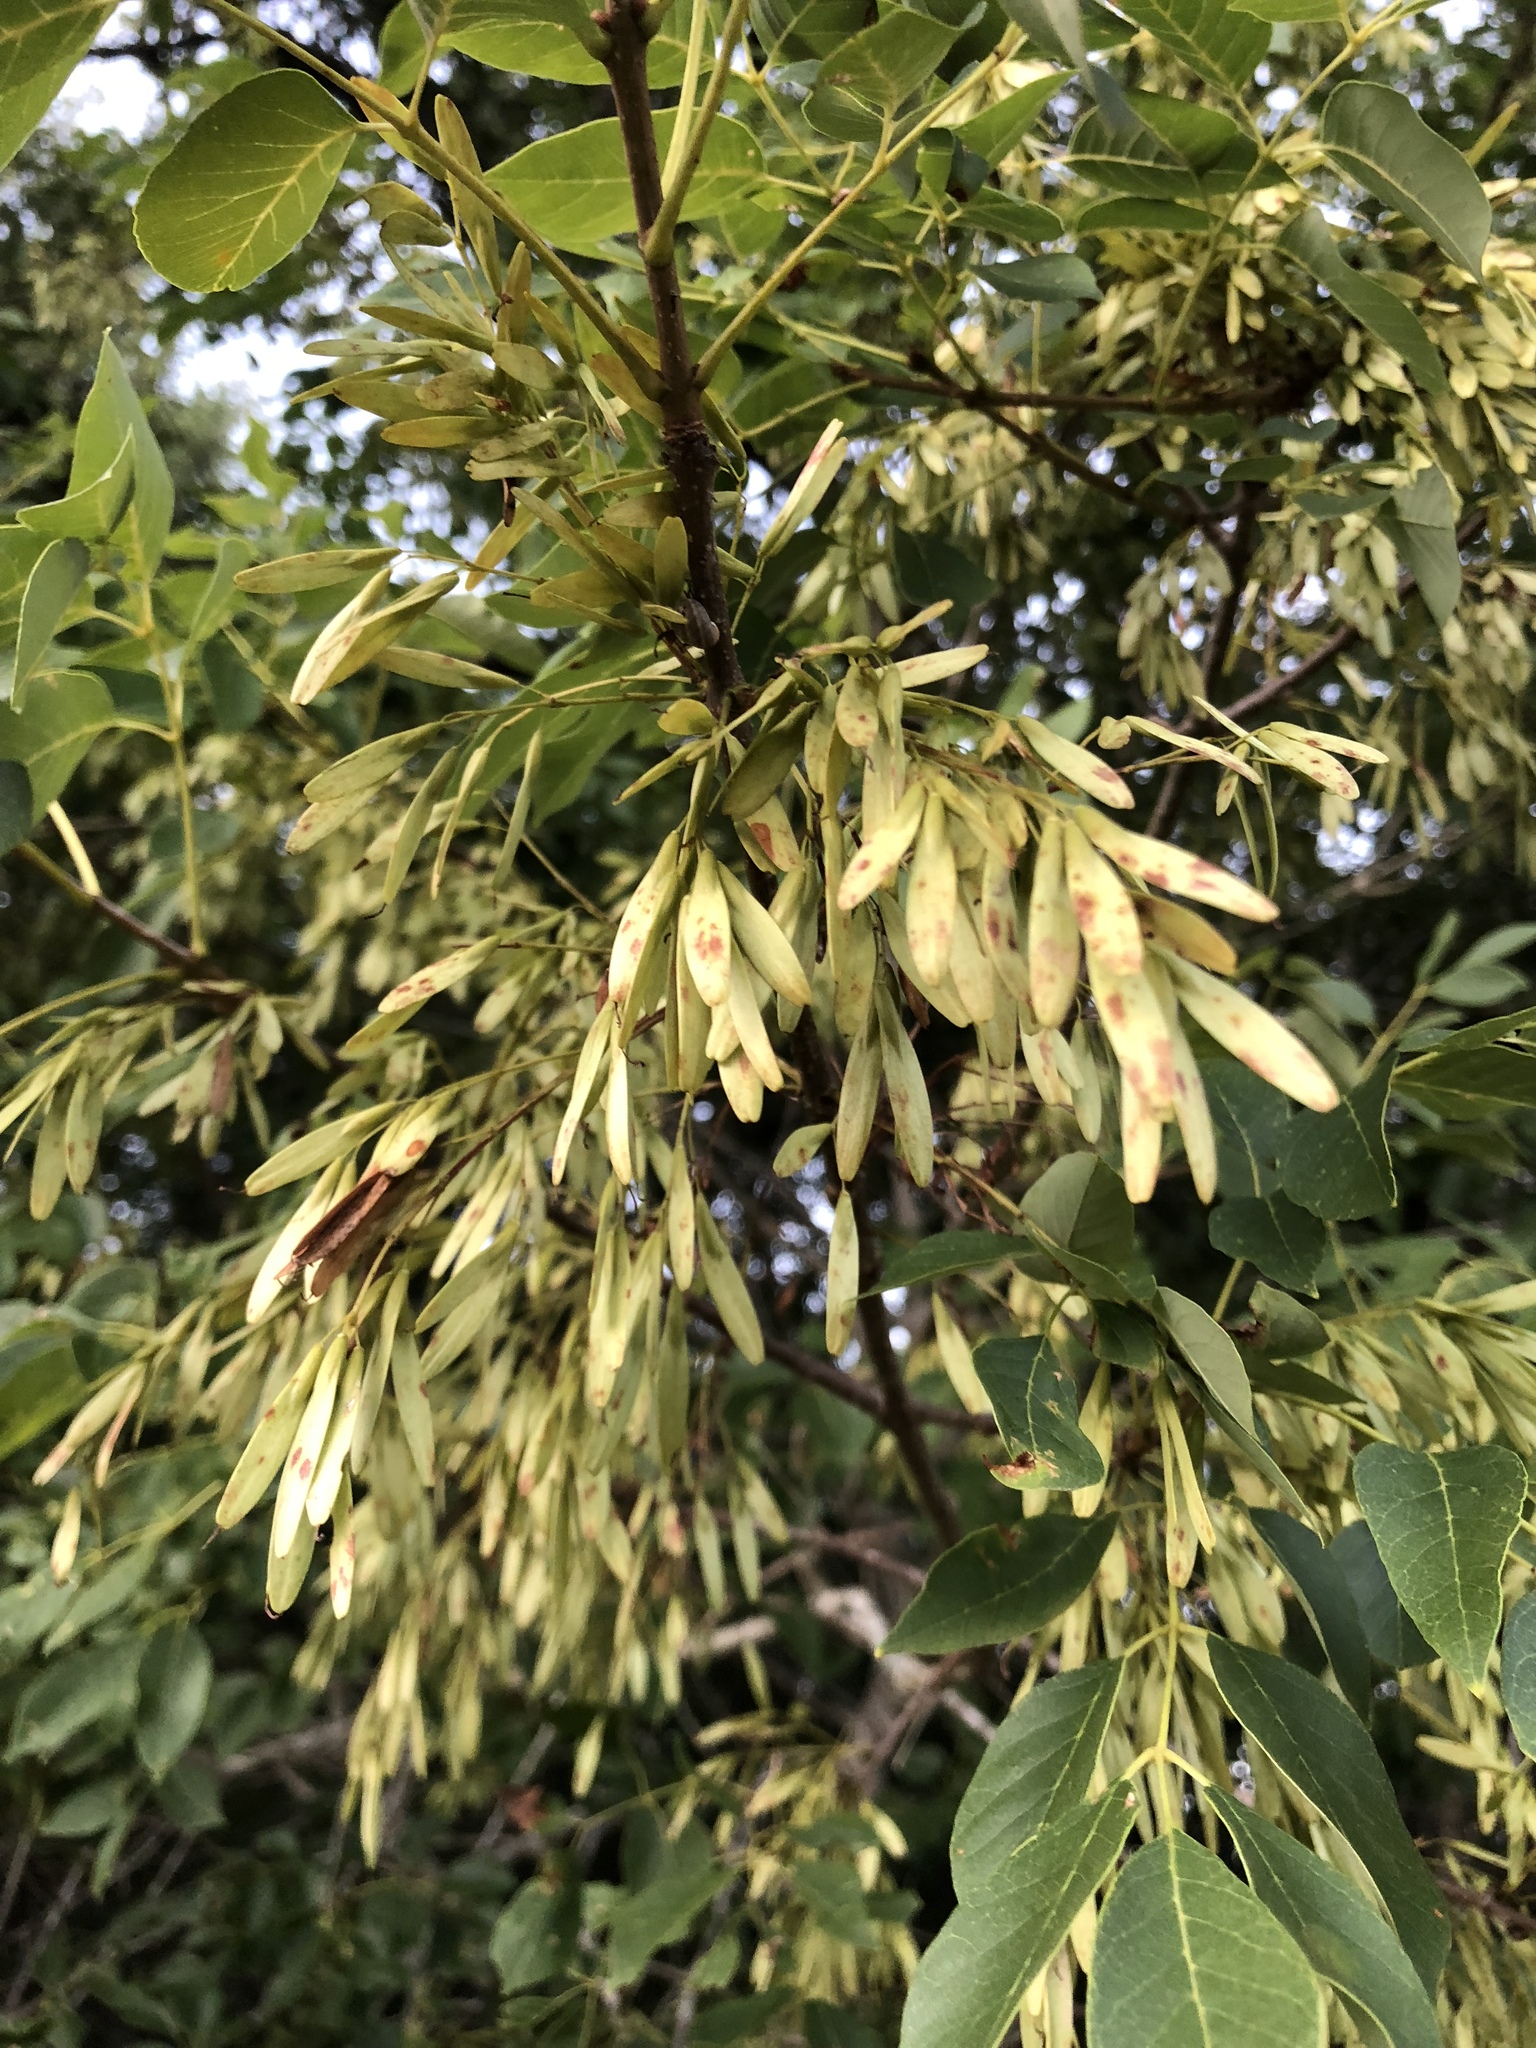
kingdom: Plantae
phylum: Tracheophyta
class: Magnoliopsida
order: Lamiales
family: Oleaceae
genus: Fraxinus
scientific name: Fraxinus albicans
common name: Texas ash
